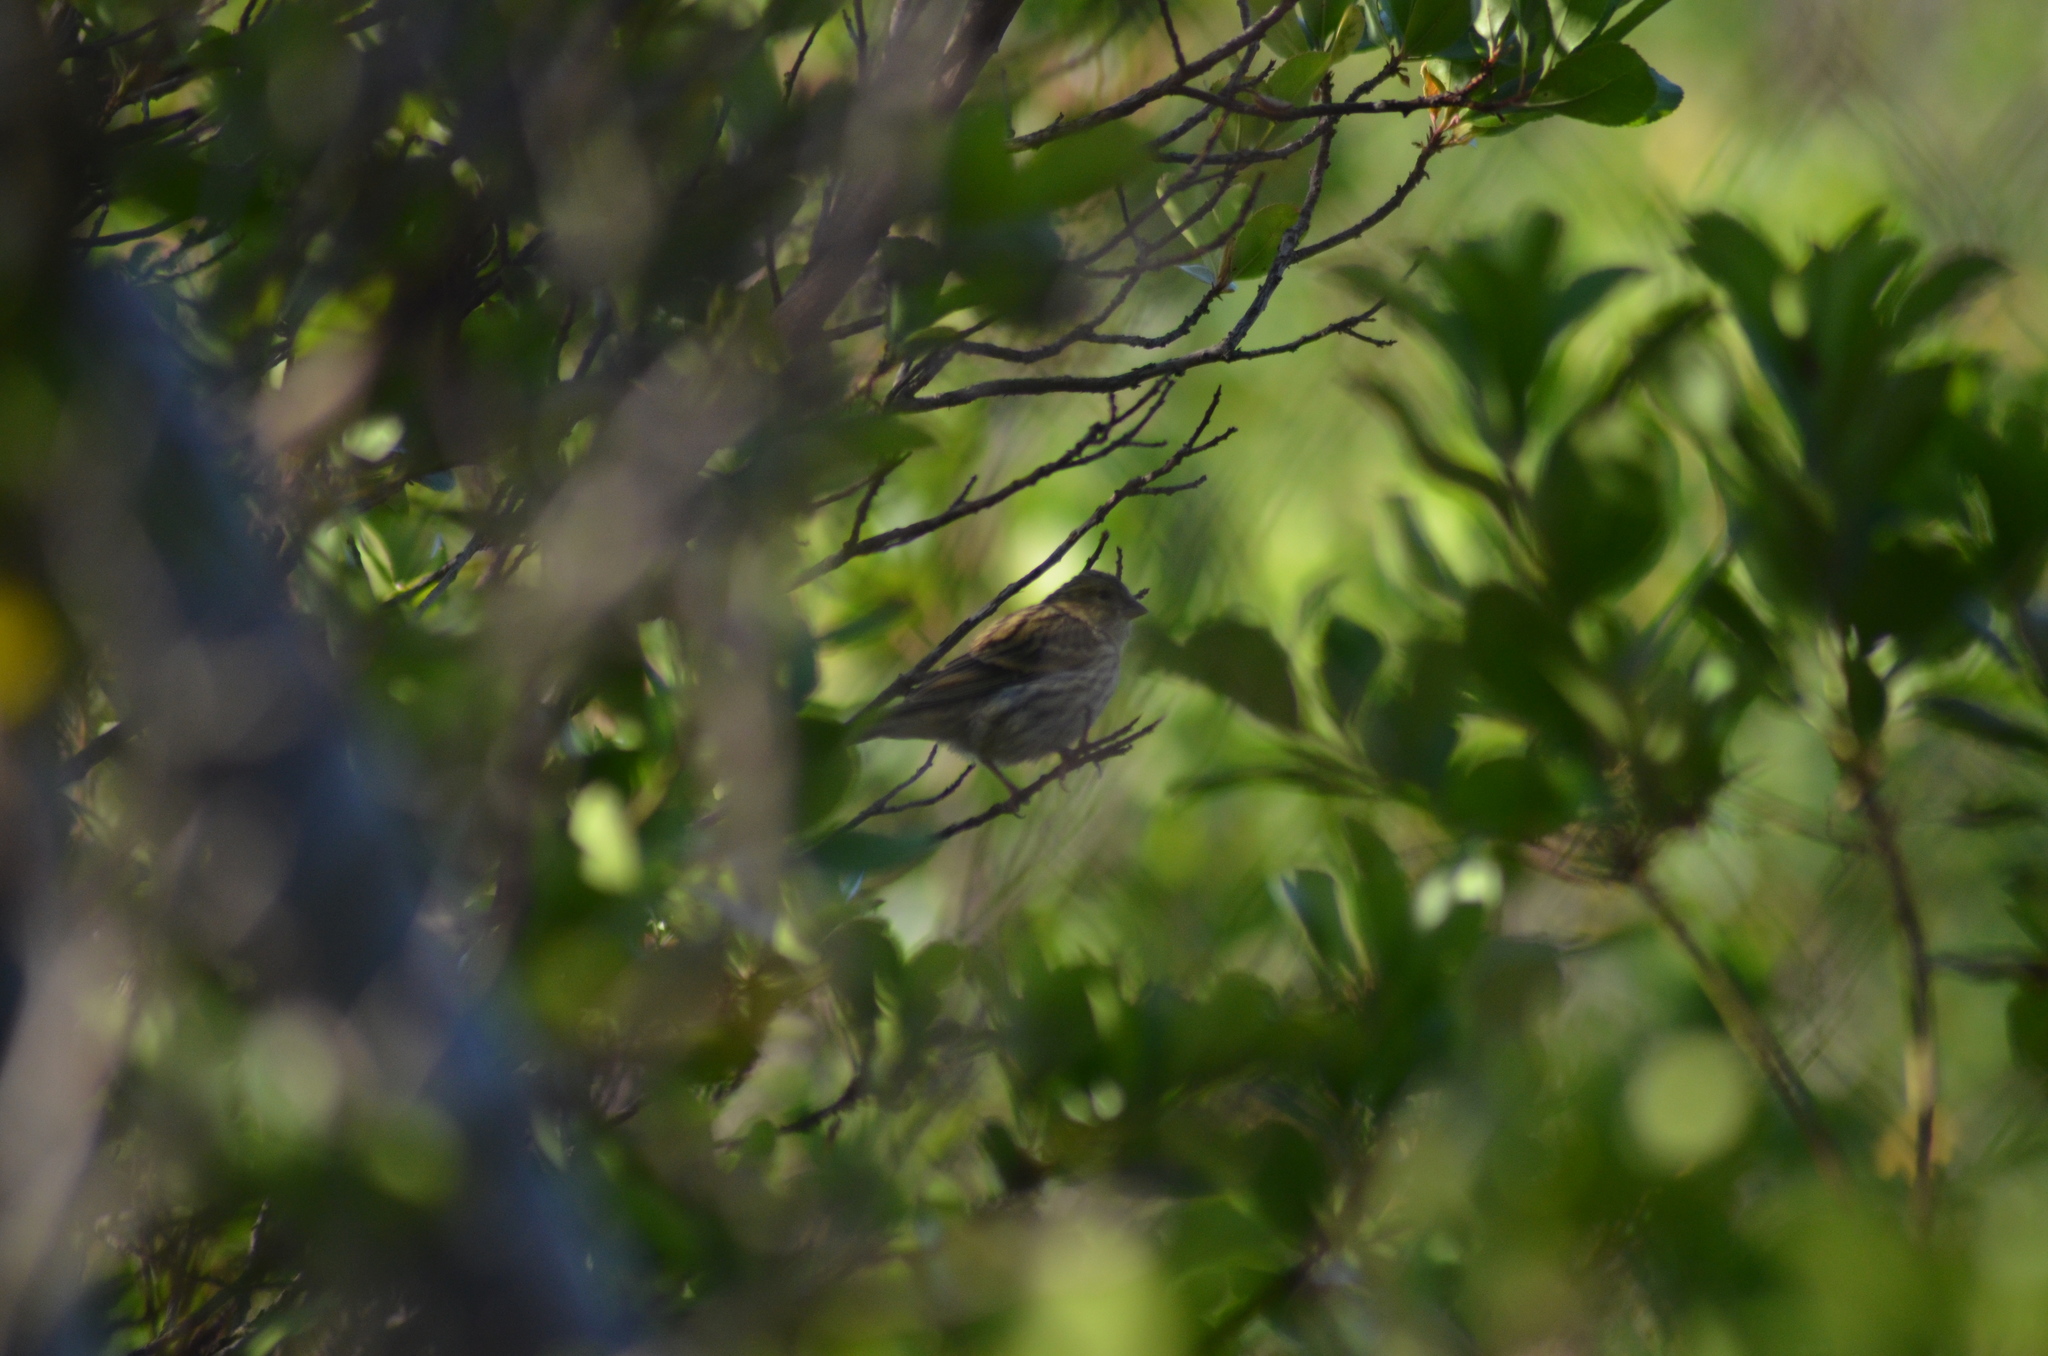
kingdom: Animalia
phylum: Chordata
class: Aves
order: Passeriformes
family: Fringillidae
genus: Serinus
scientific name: Serinus serinus
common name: European serin
